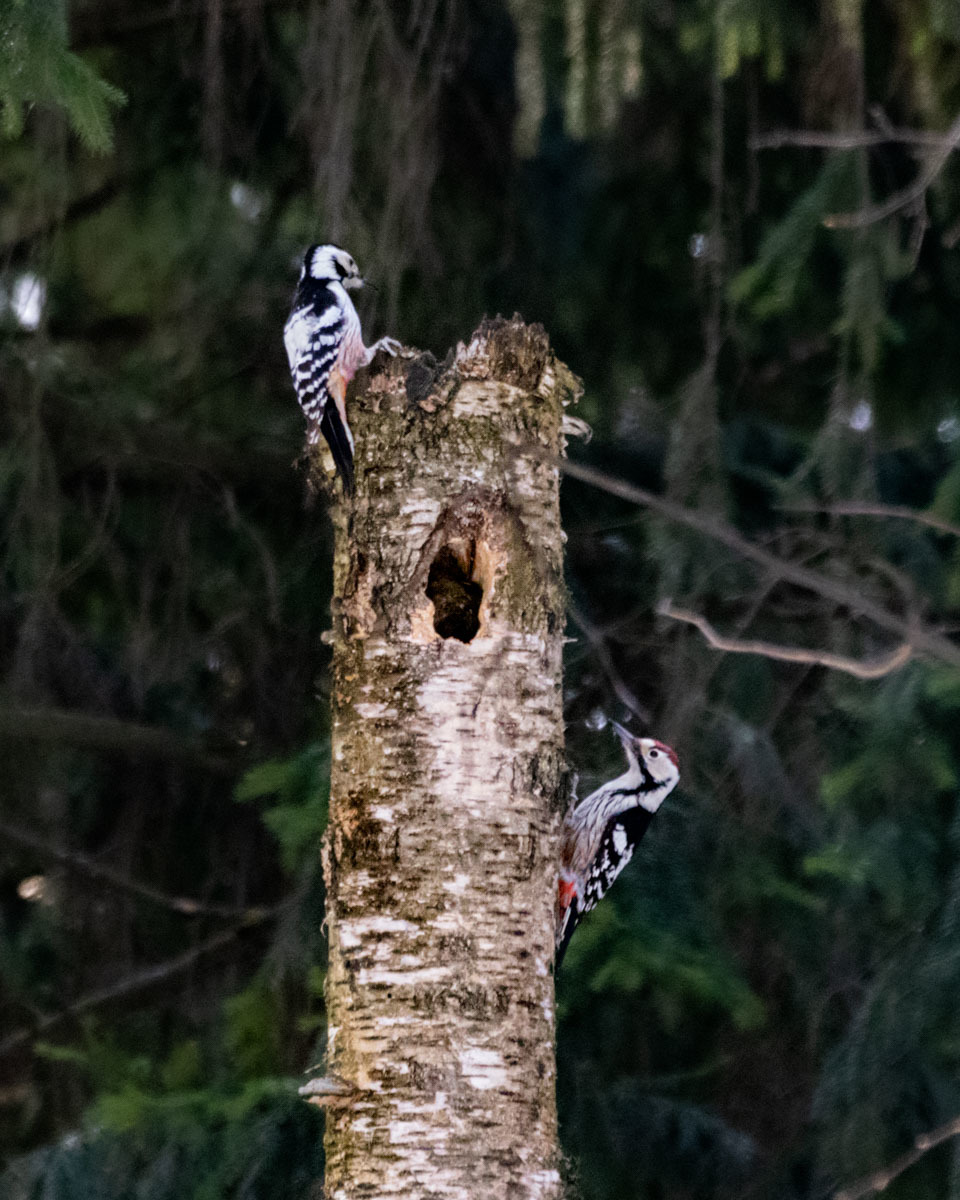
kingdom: Animalia
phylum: Chordata
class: Aves
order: Piciformes
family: Picidae
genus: Dendrocopos
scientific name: Dendrocopos leucotos
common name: White-backed woodpecker
